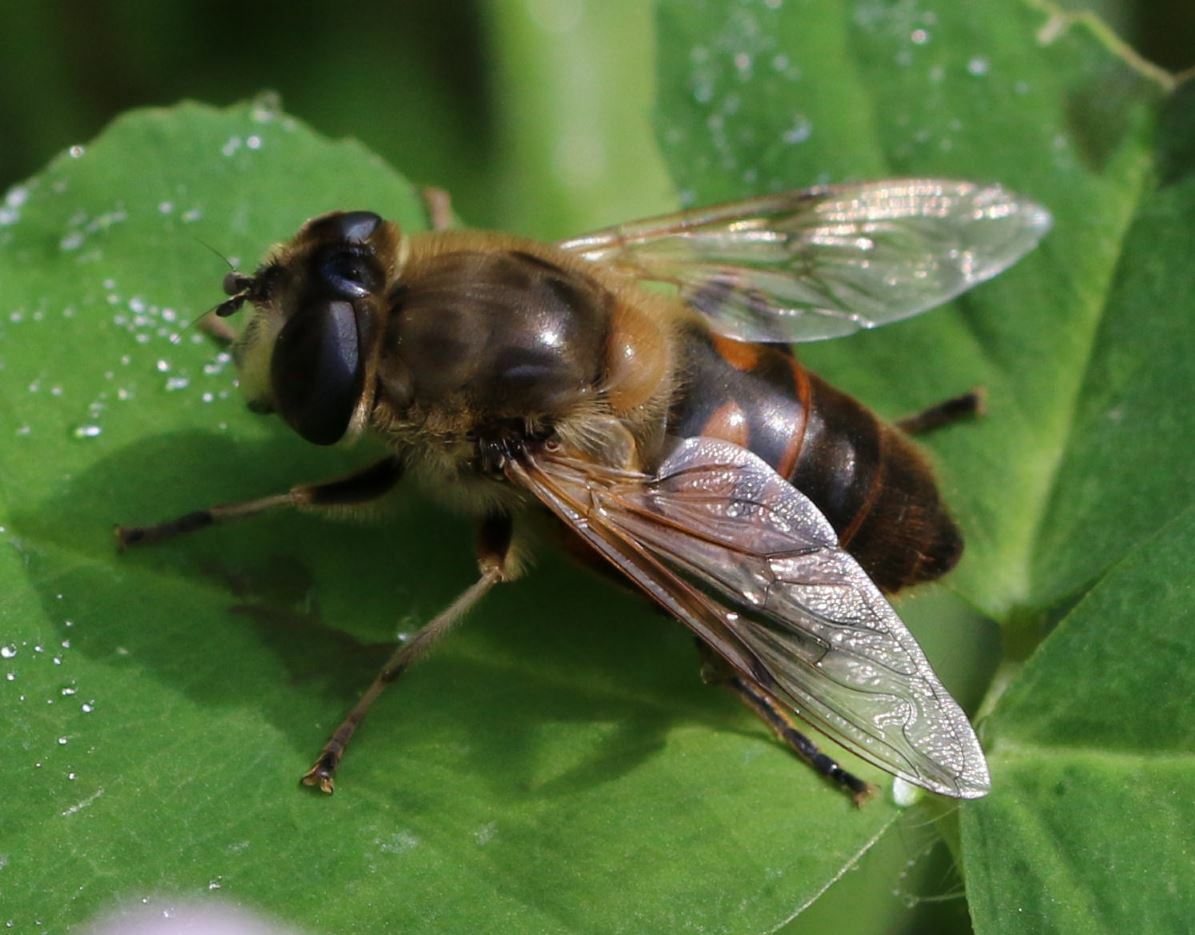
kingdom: Animalia
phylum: Arthropoda
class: Insecta
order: Diptera
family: Syrphidae
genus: Eristalis
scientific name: Eristalis tenax
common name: Drone fly
